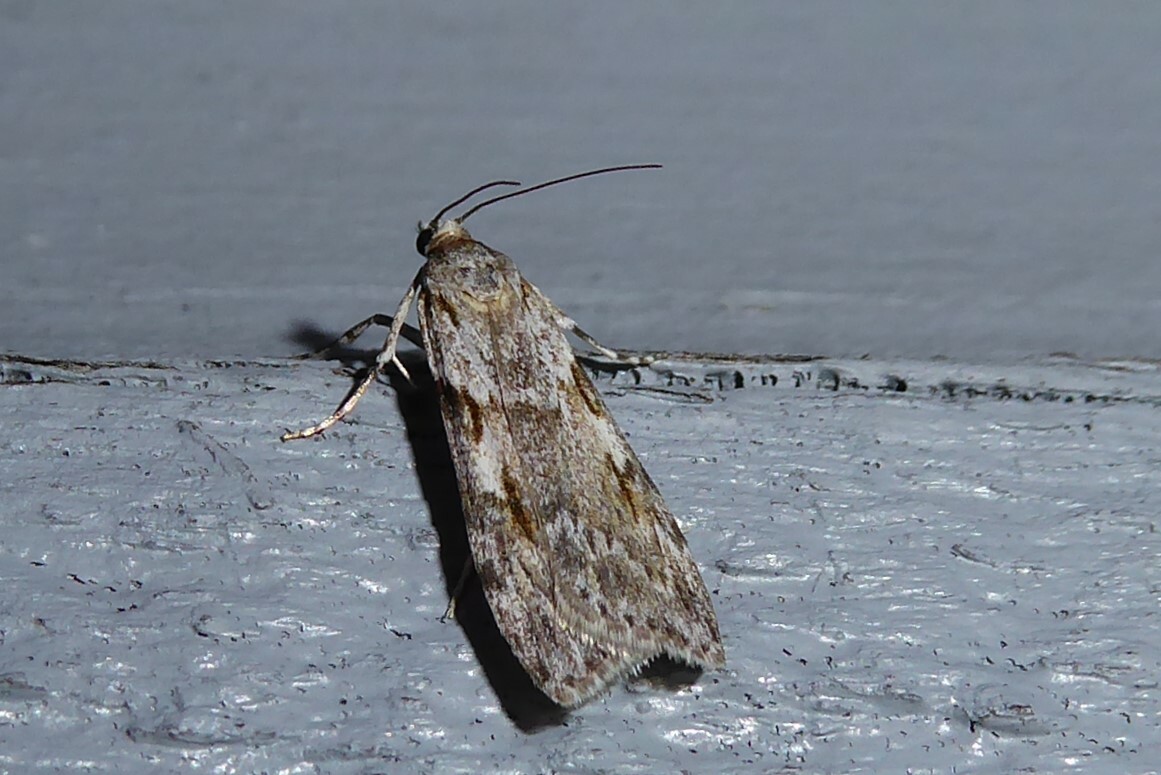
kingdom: Animalia
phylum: Arthropoda
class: Insecta
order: Lepidoptera
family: Crambidae
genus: Scoparia
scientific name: Scoparia halopis
